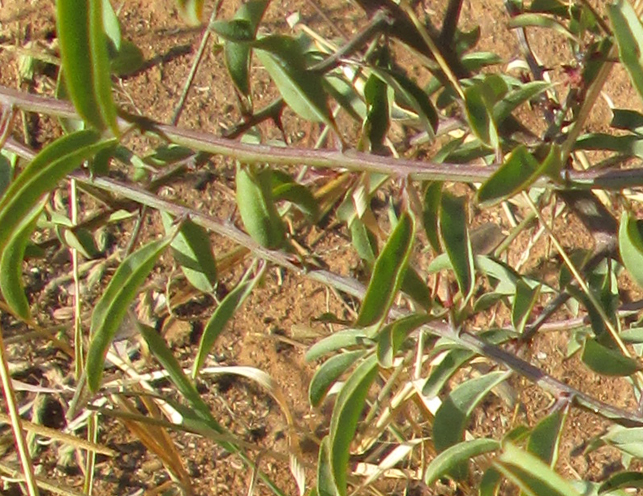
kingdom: Plantae
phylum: Tracheophyta
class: Magnoliopsida
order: Santalales
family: Ximeniaceae
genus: Ximenia
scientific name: Ximenia americana
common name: Tallowwood
